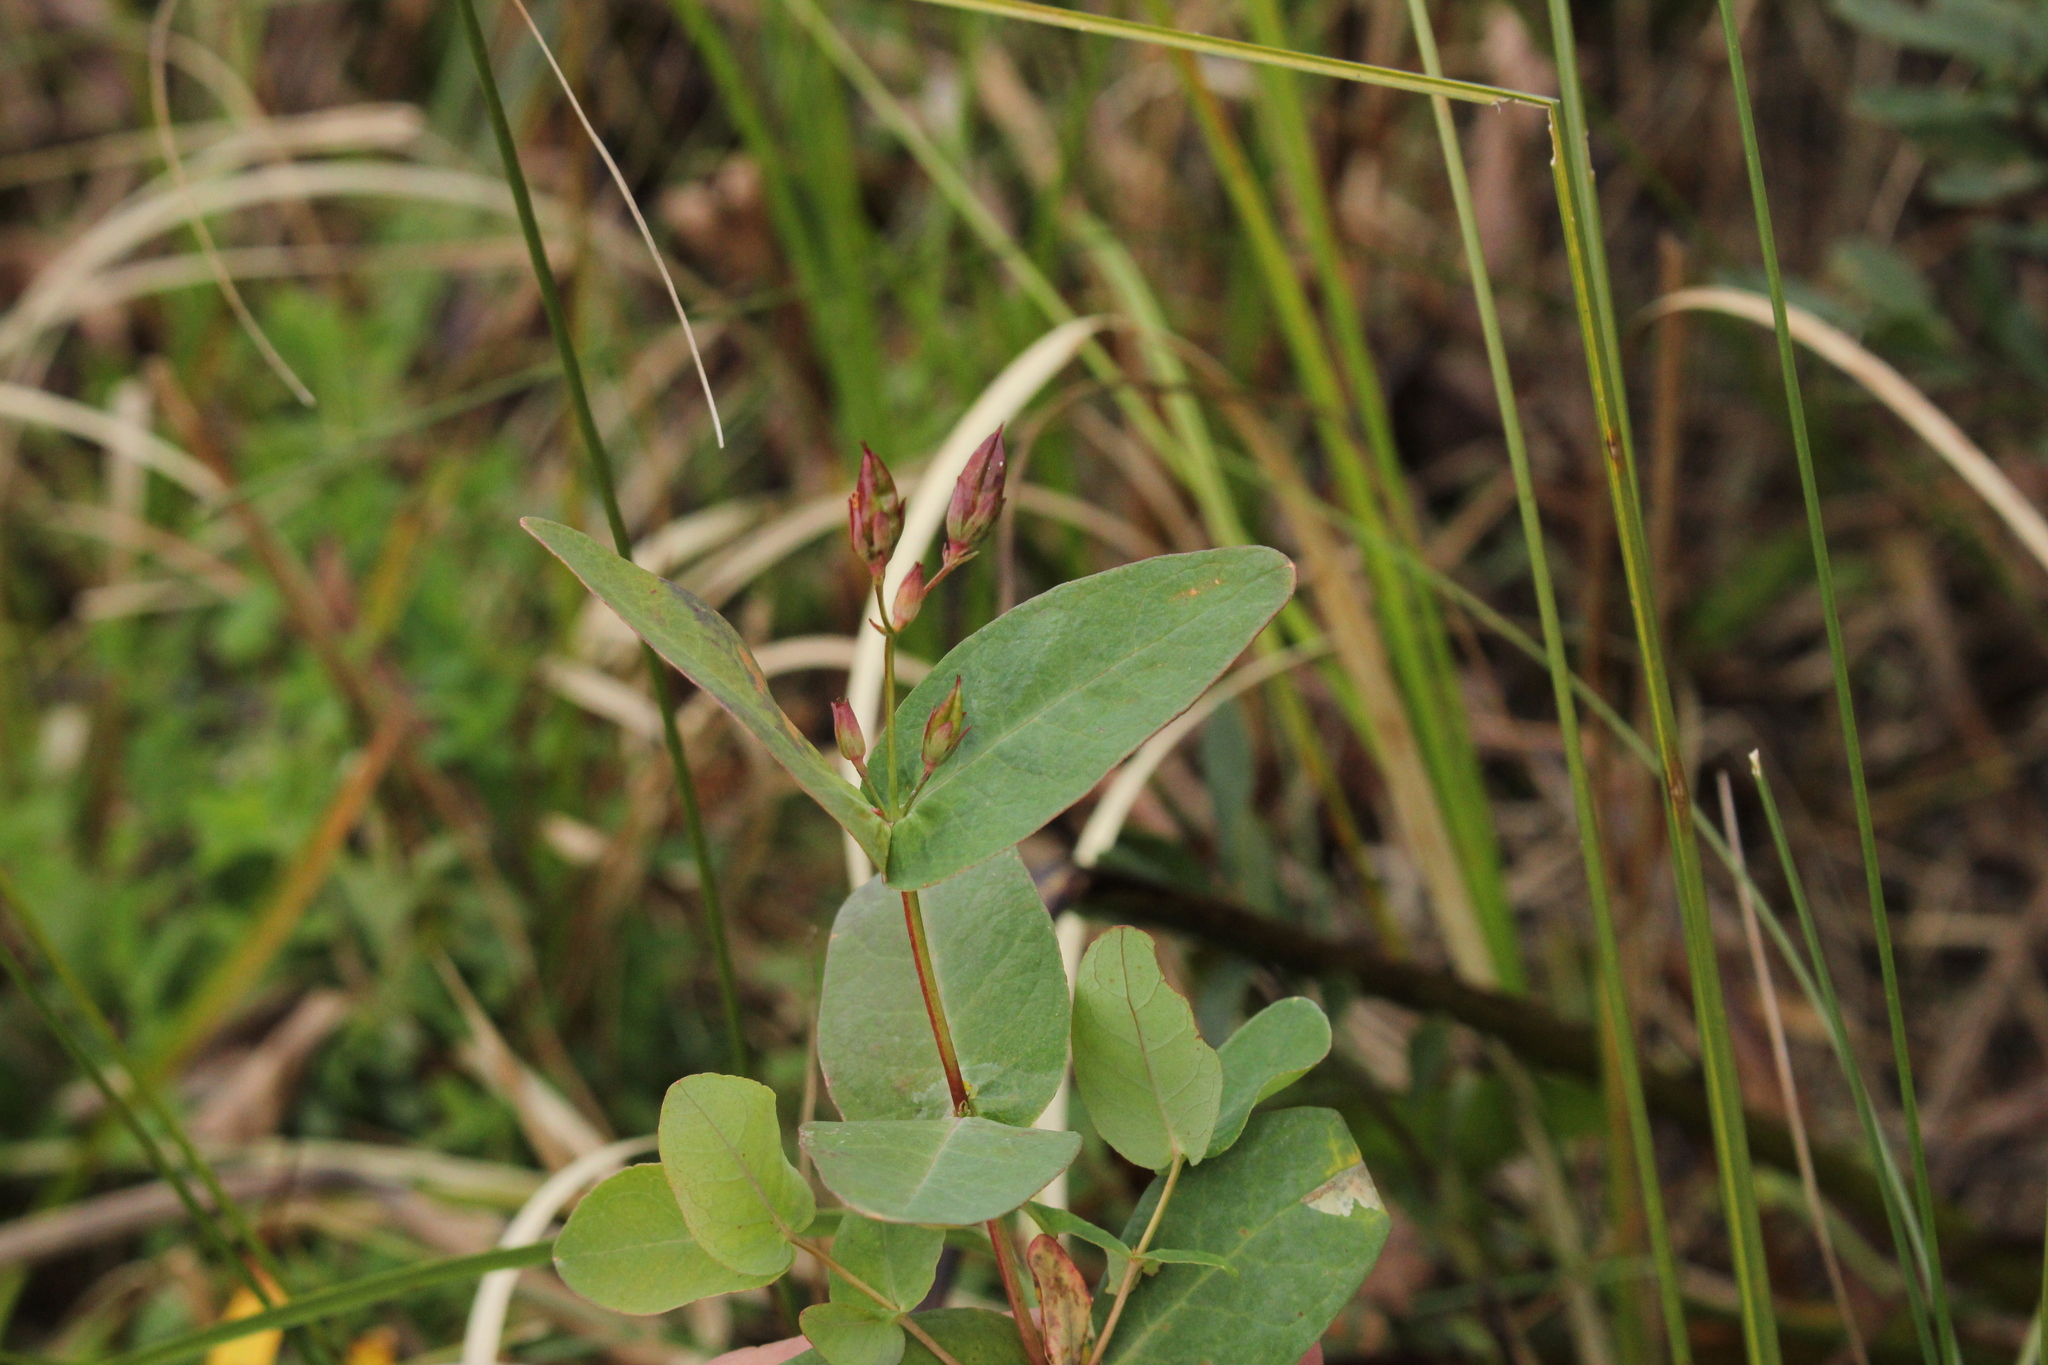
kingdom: Plantae
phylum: Tracheophyta
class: Magnoliopsida
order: Malpighiales
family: Hypericaceae
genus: Triadenum
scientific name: Triadenum fraseri
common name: Fraser's marsh st. johnswort
